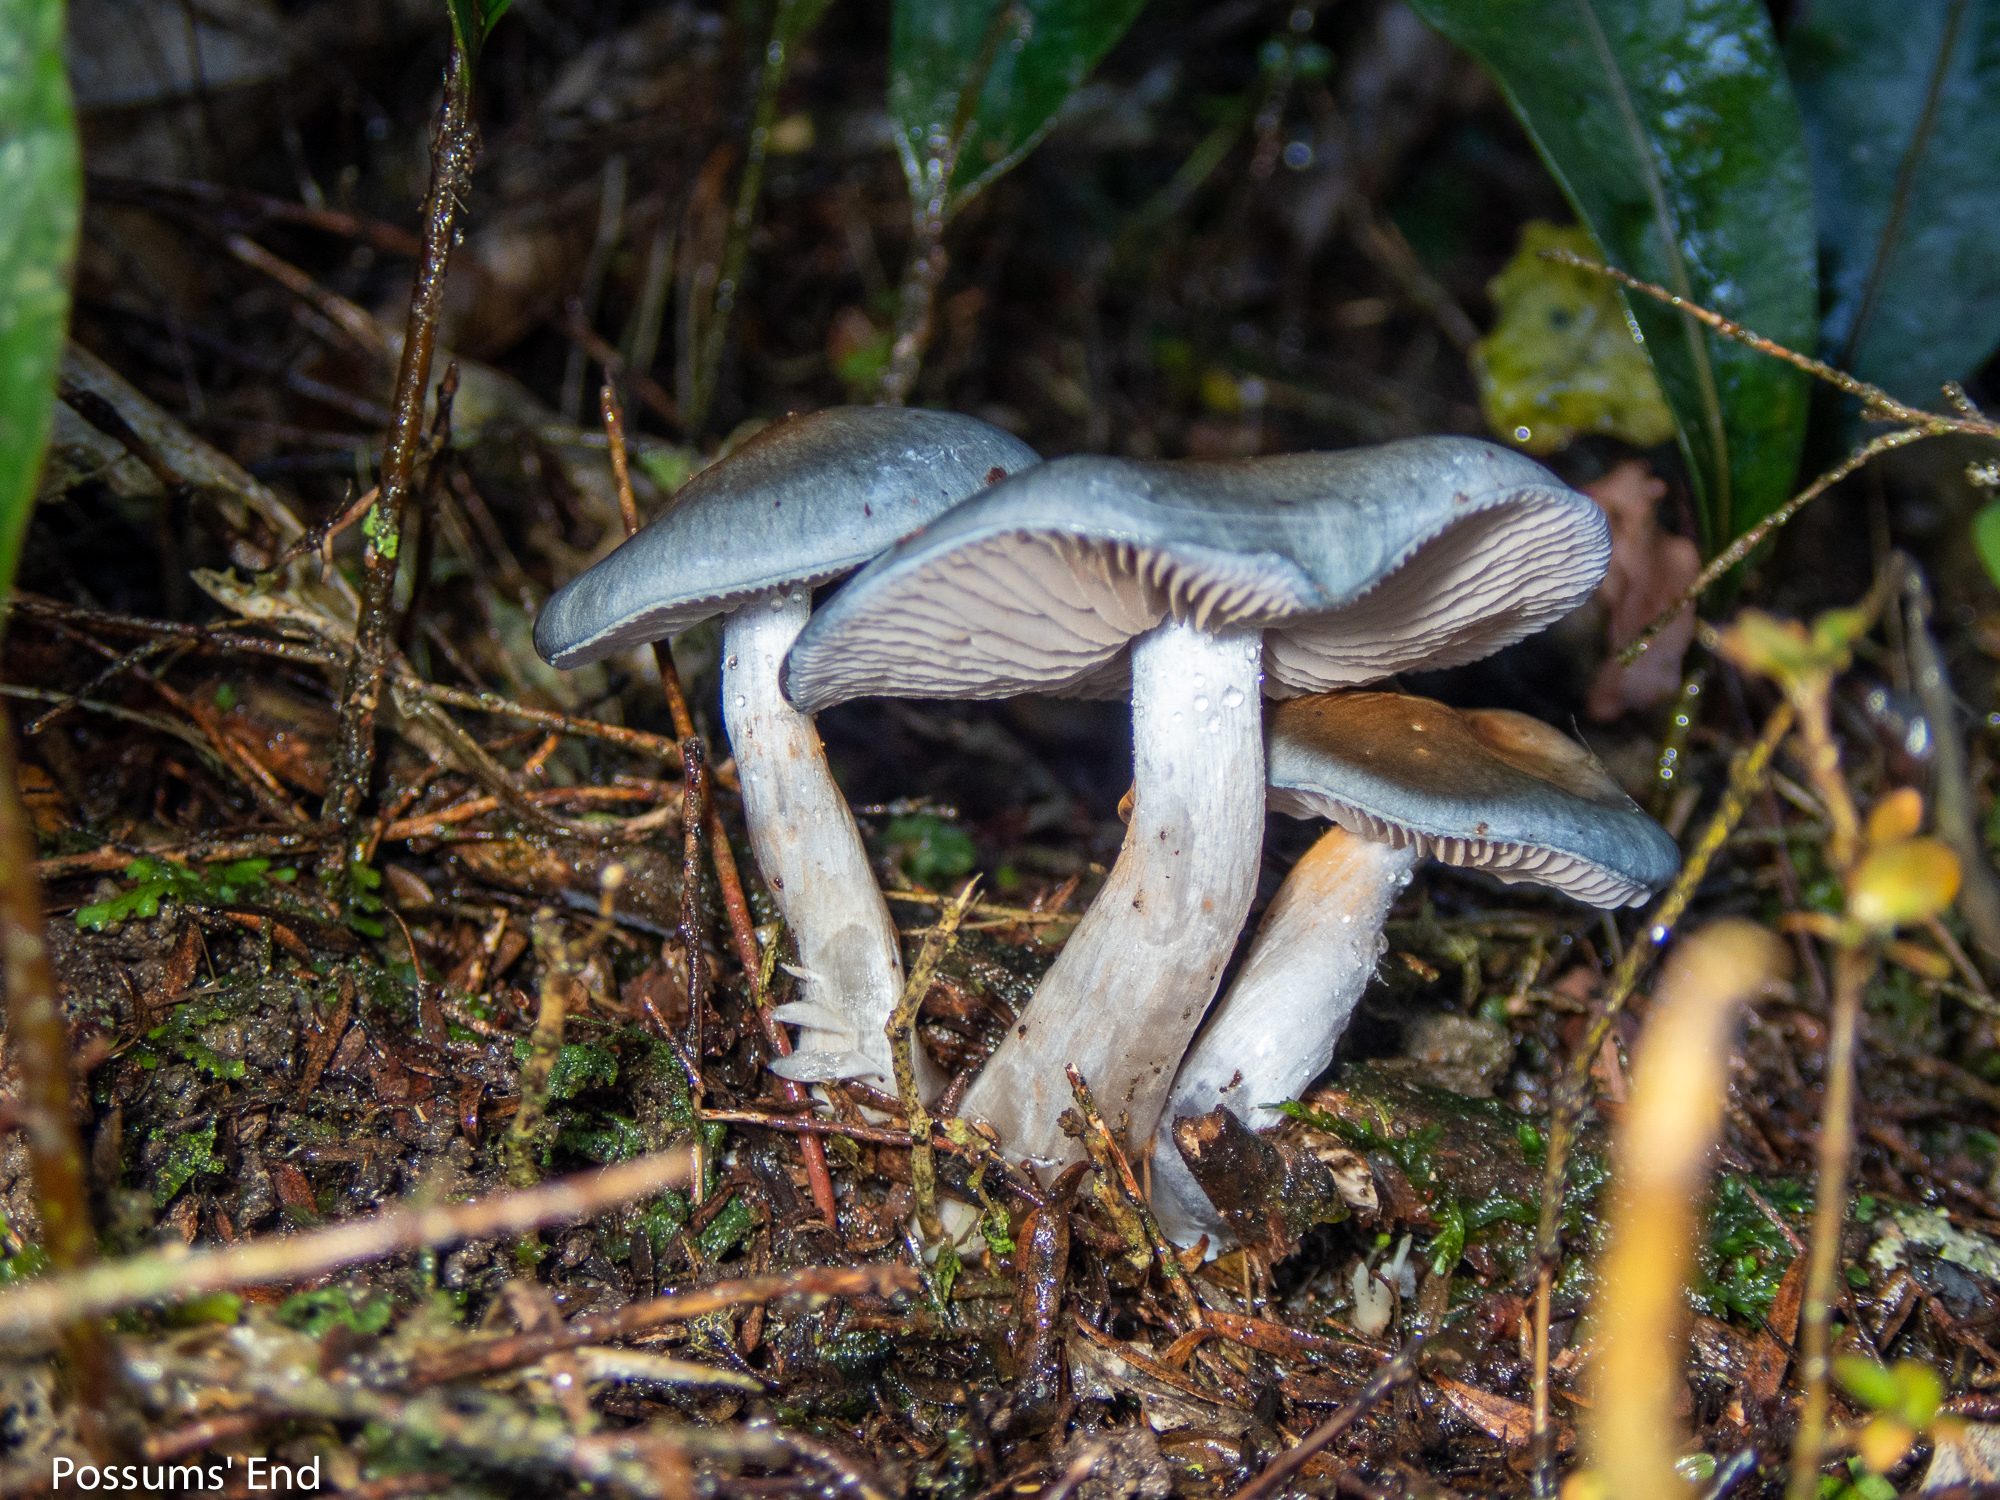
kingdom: Fungi
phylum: Basidiomycota
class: Agaricomycetes
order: Agaricales
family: Cortinariaceae
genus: Cortinarius
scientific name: Cortinarius rotundisporus
